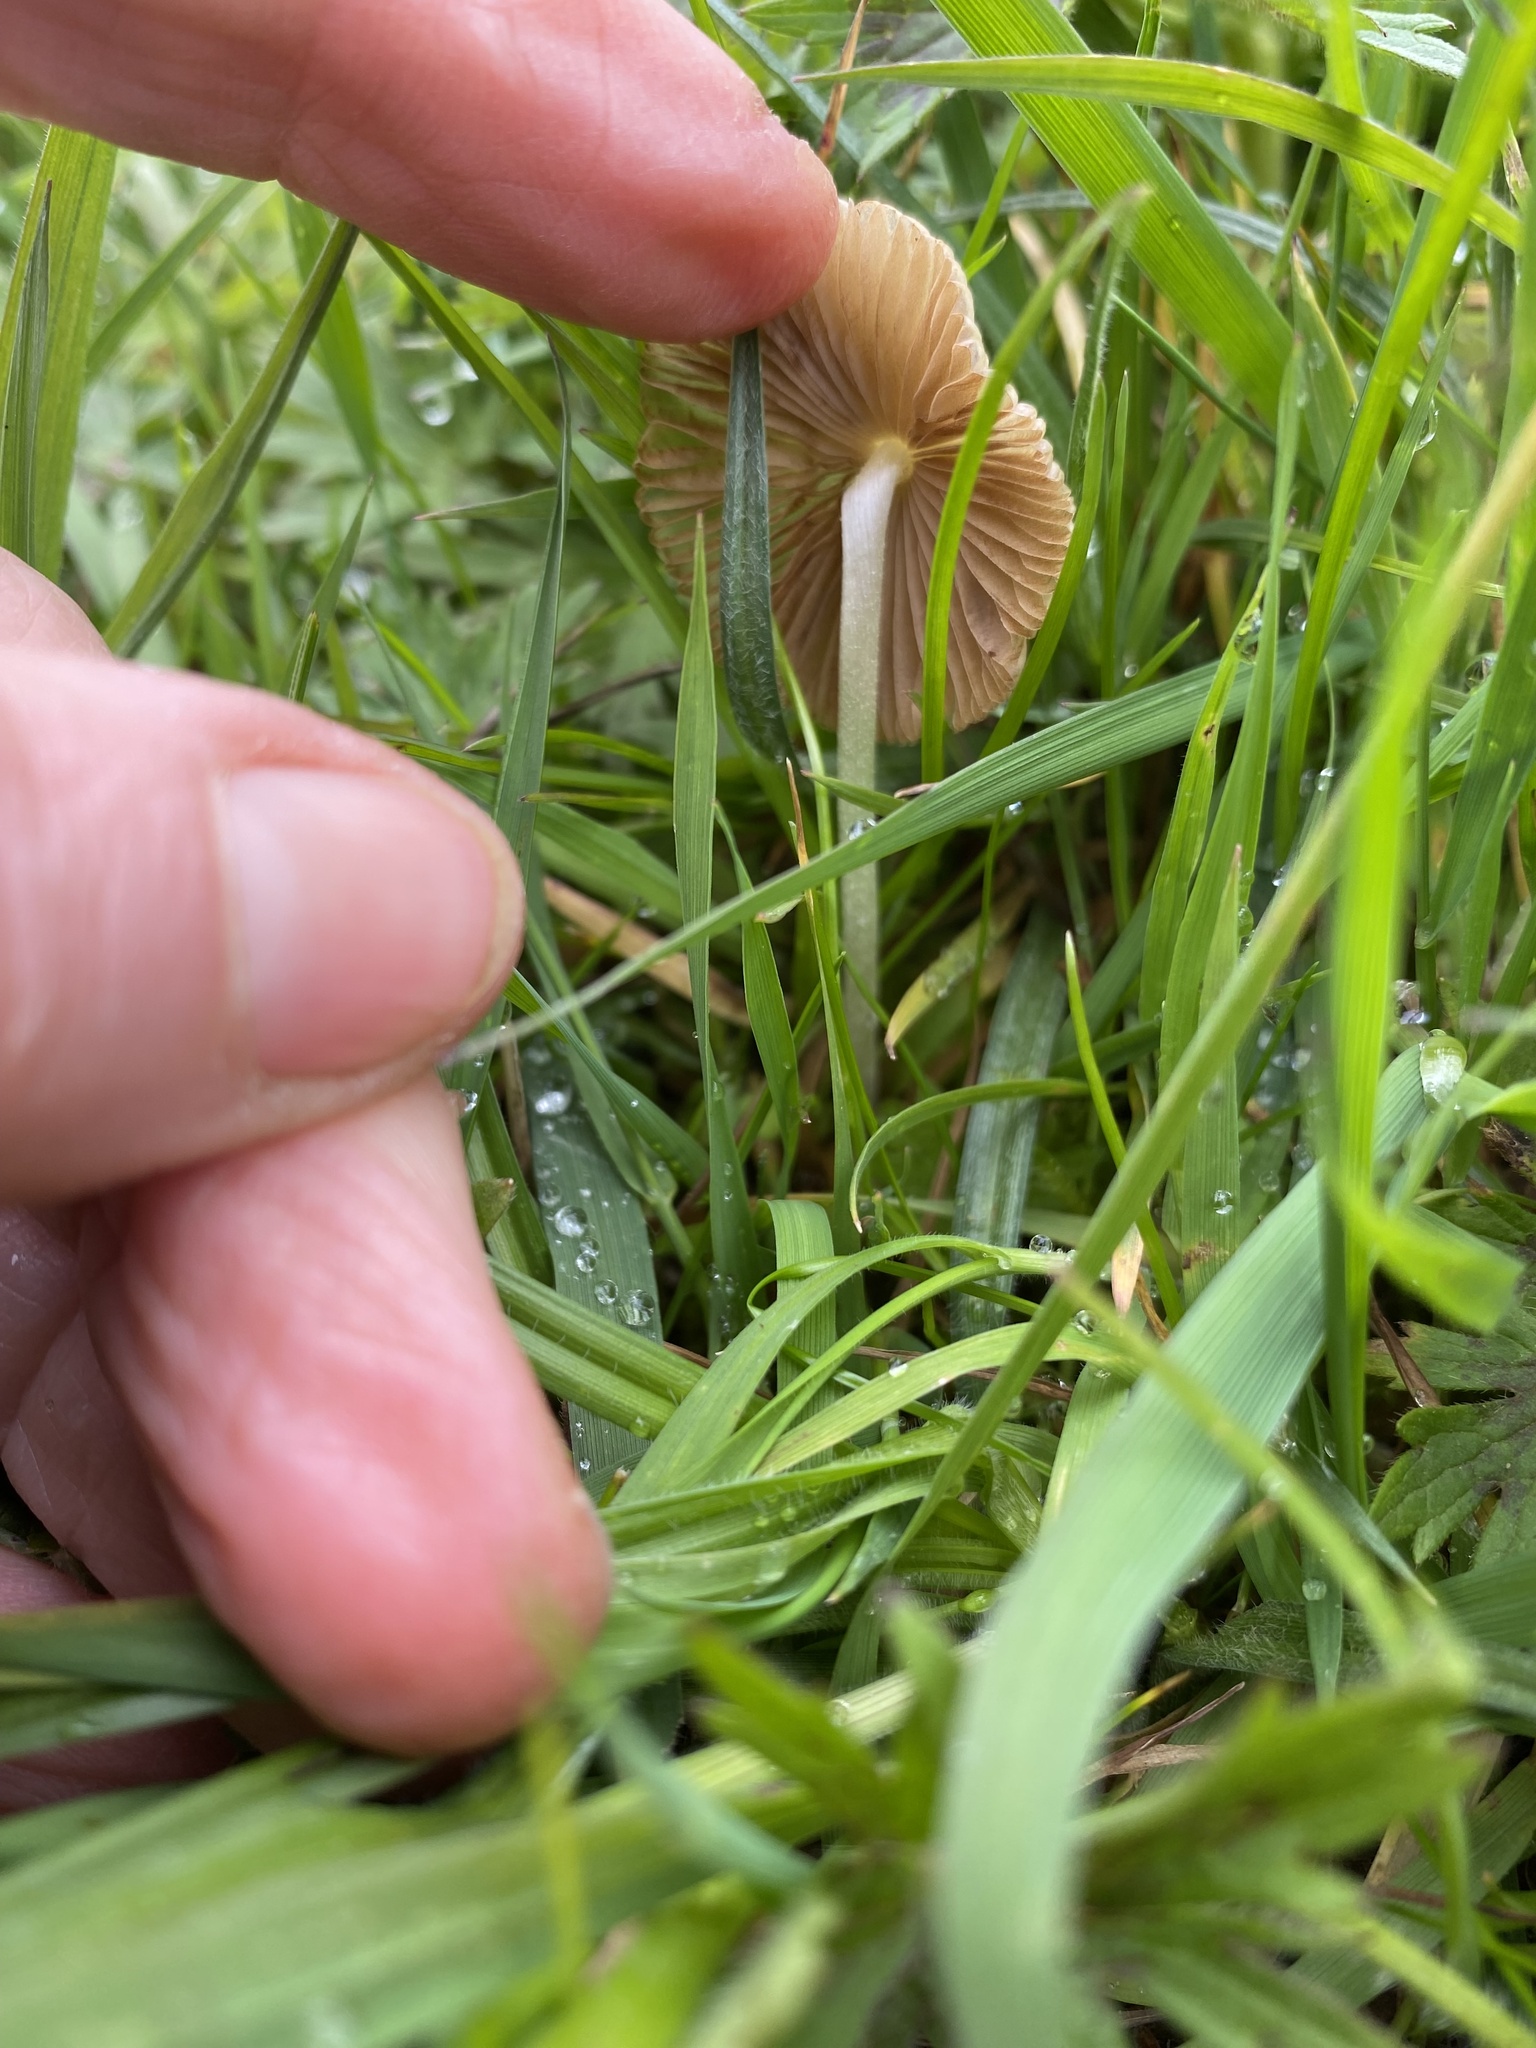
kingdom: Fungi
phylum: Basidiomycota
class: Agaricomycetes
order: Agaricales
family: Bolbitiaceae
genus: Bolbitius
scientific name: Bolbitius titubans
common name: Yellow fieldcap
